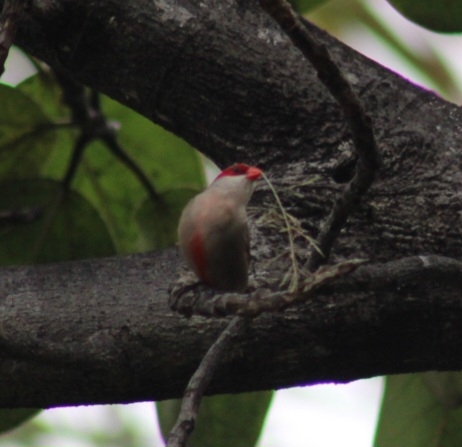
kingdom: Animalia
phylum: Chordata
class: Aves
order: Passeriformes
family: Estrildidae
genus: Estrilda
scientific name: Estrilda astrild
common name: Common waxbill
